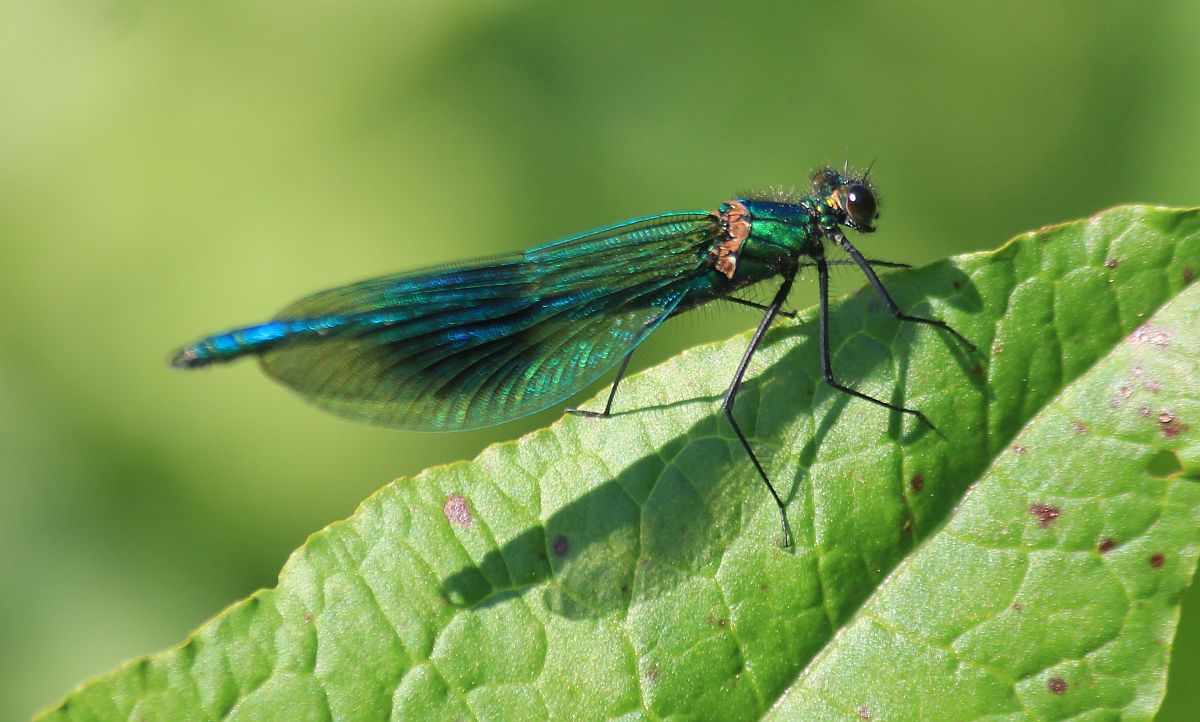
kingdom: Animalia
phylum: Arthropoda
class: Insecta
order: Odonata
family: Calopterygidae
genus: Calopteryx
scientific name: Calopteryx splendens
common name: Banded demoiselle
